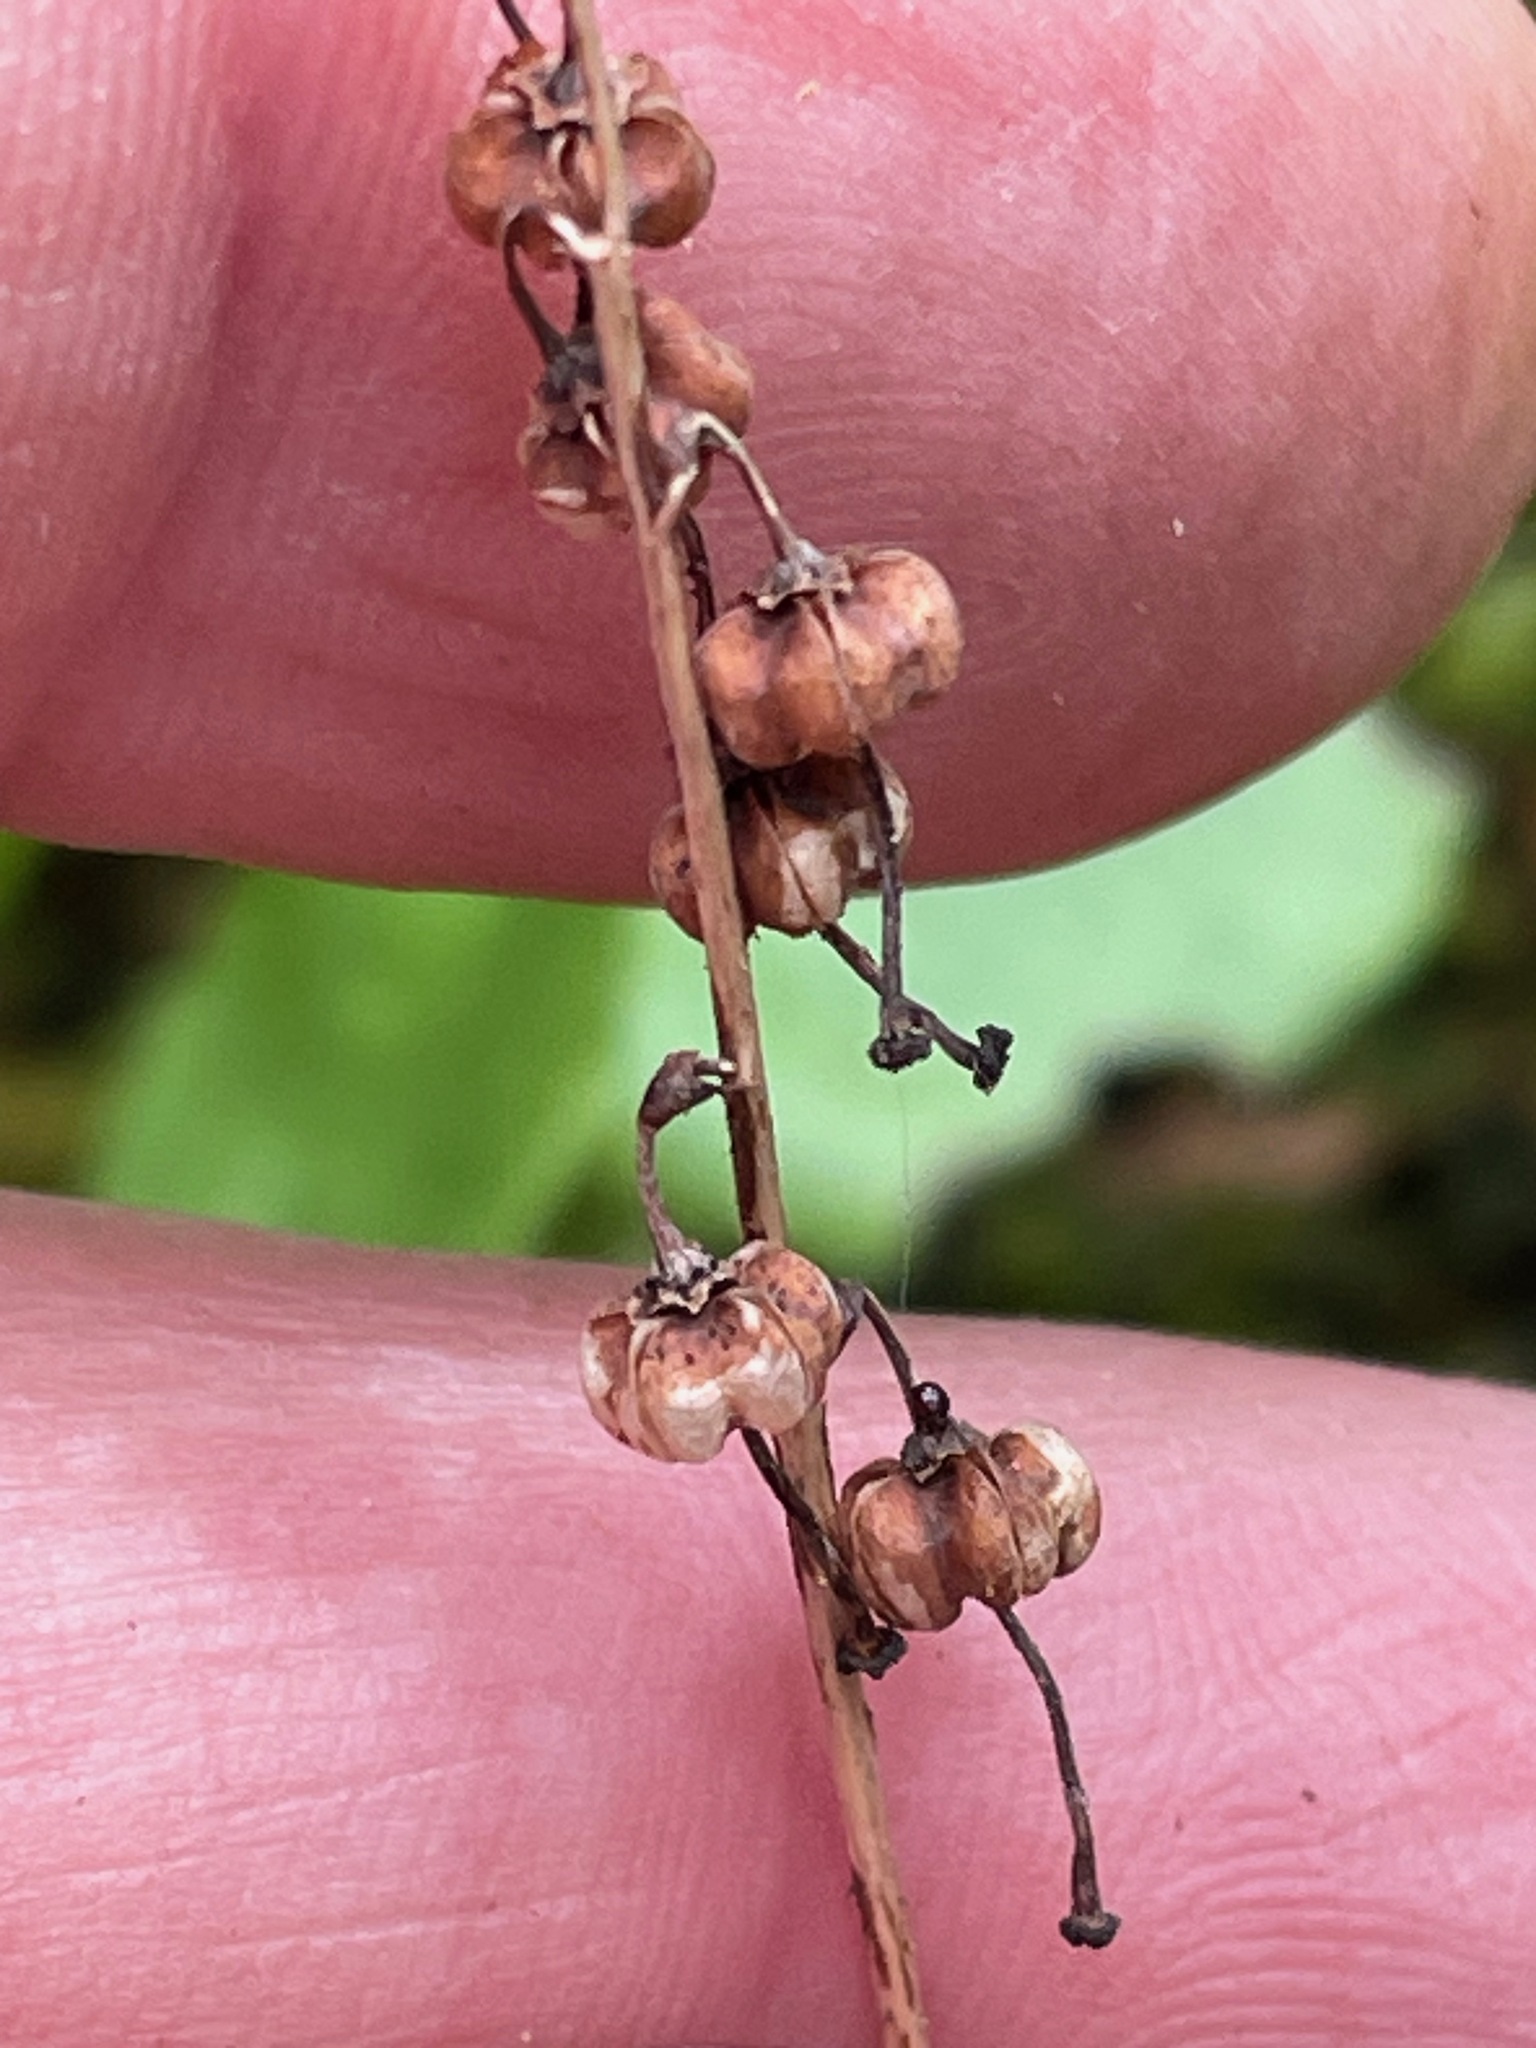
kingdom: Plantae
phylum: Tracheophyta
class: Magnoliopsida
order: Ericales
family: Ericaceae
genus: Orthilia
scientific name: Orthilia secunda
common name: One-sided orthilia
